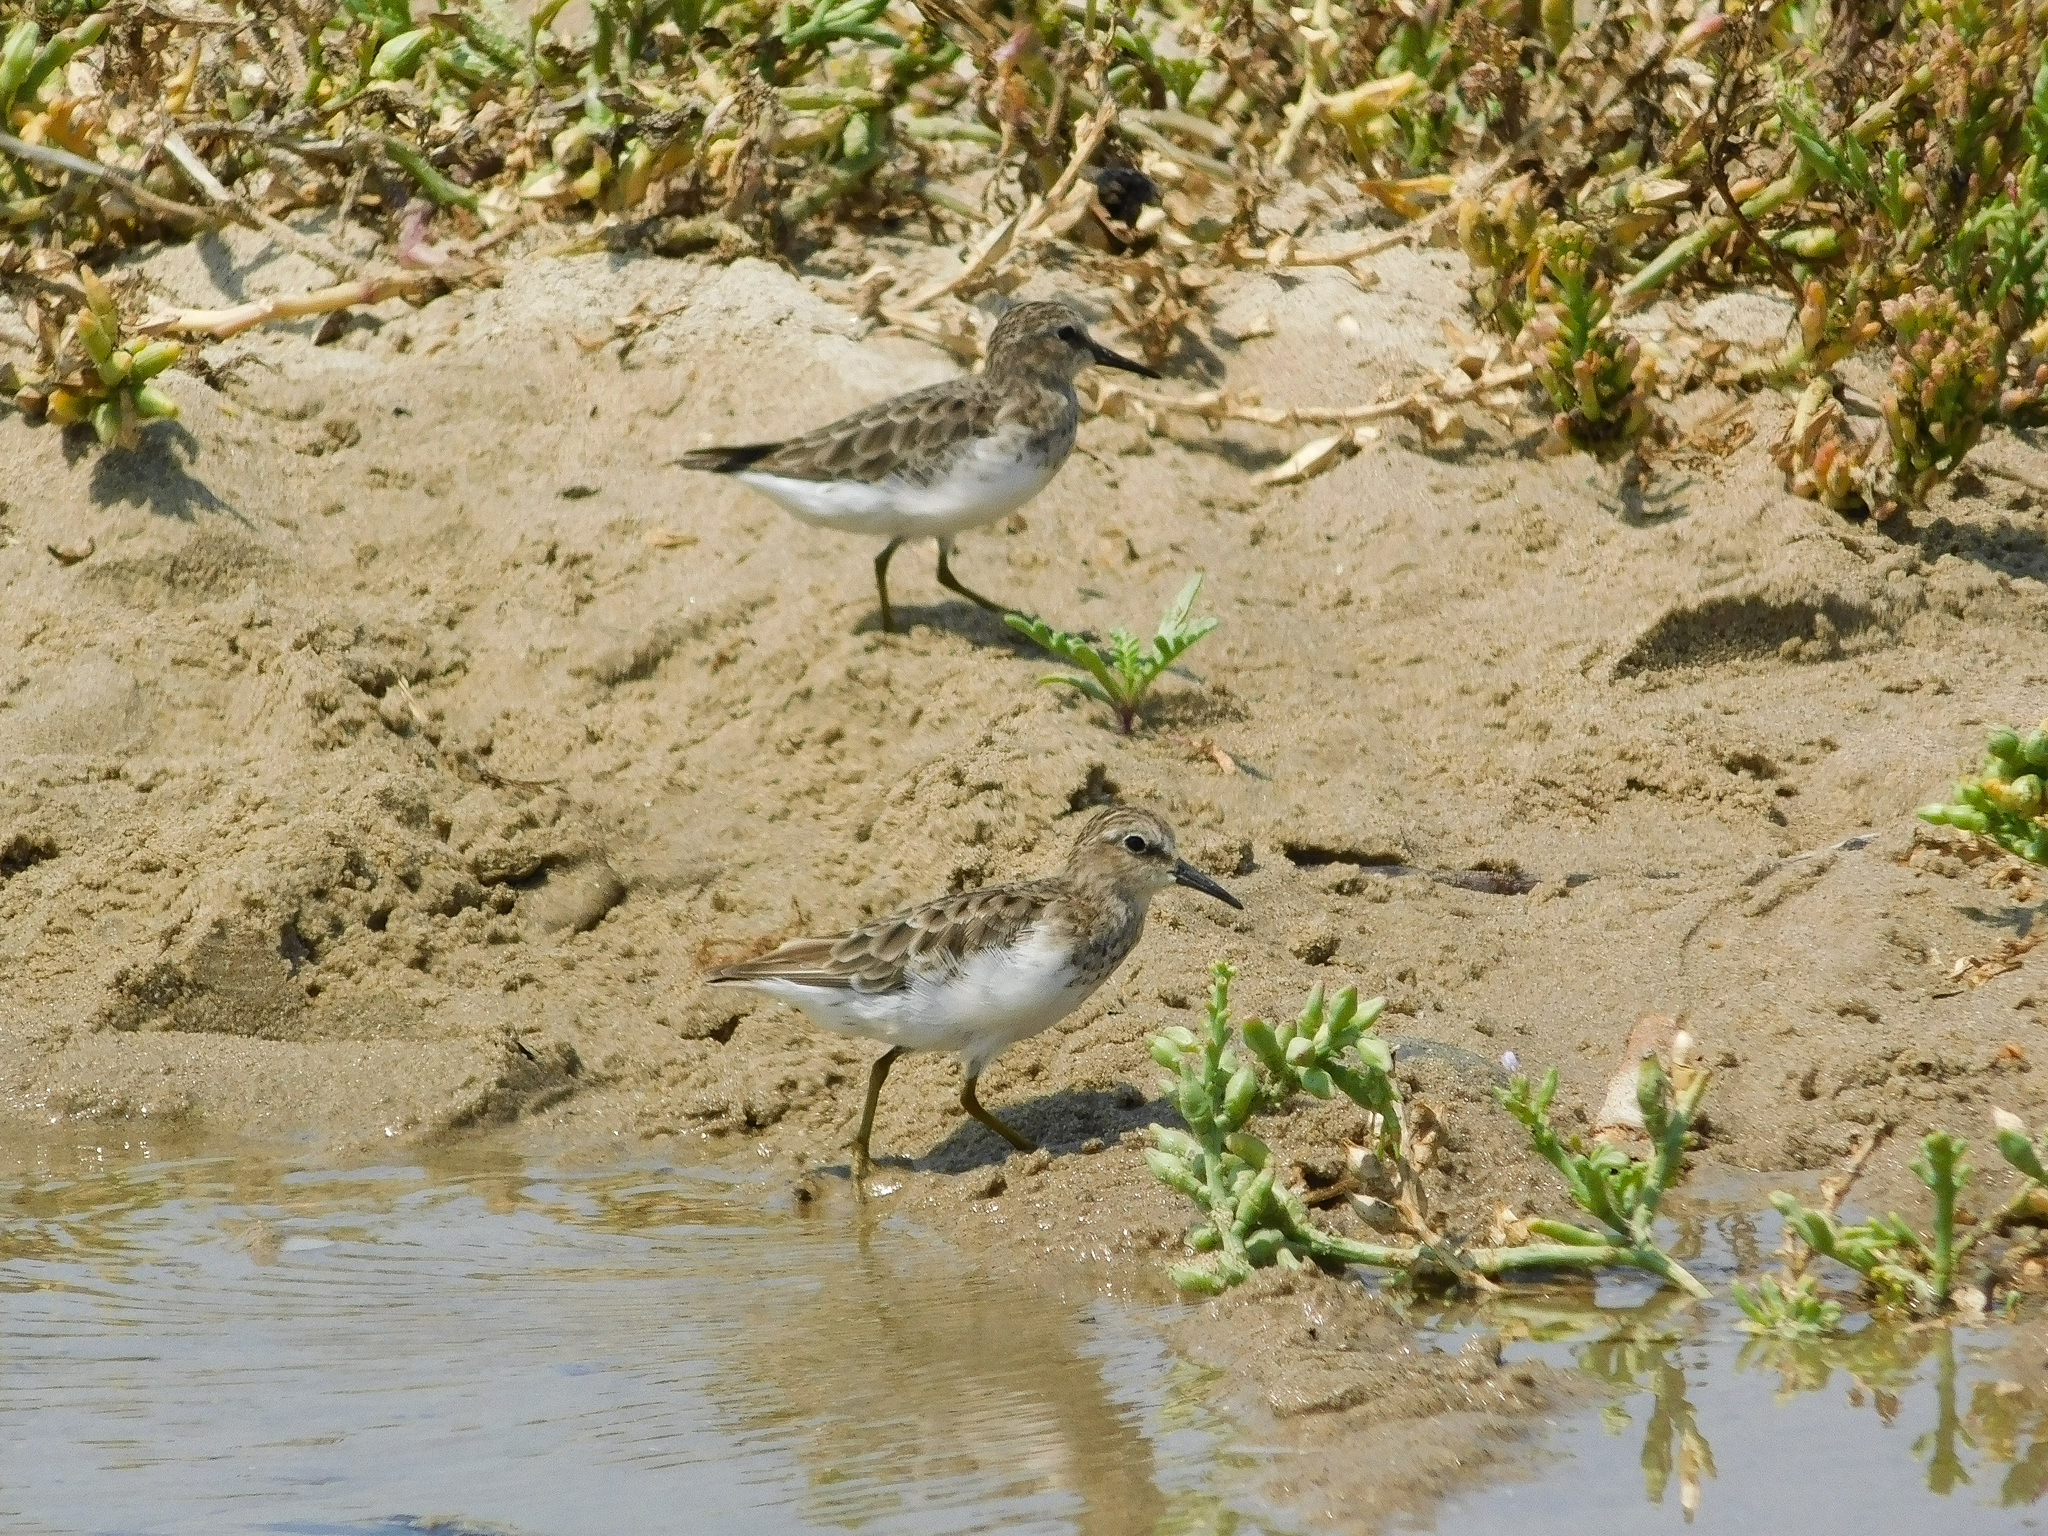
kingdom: Animalia
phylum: Chordata
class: Aves
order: Charadriiformes
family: Scolopacidae
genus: Calidris
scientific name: Calidris minutilla
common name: Least sandpiper
